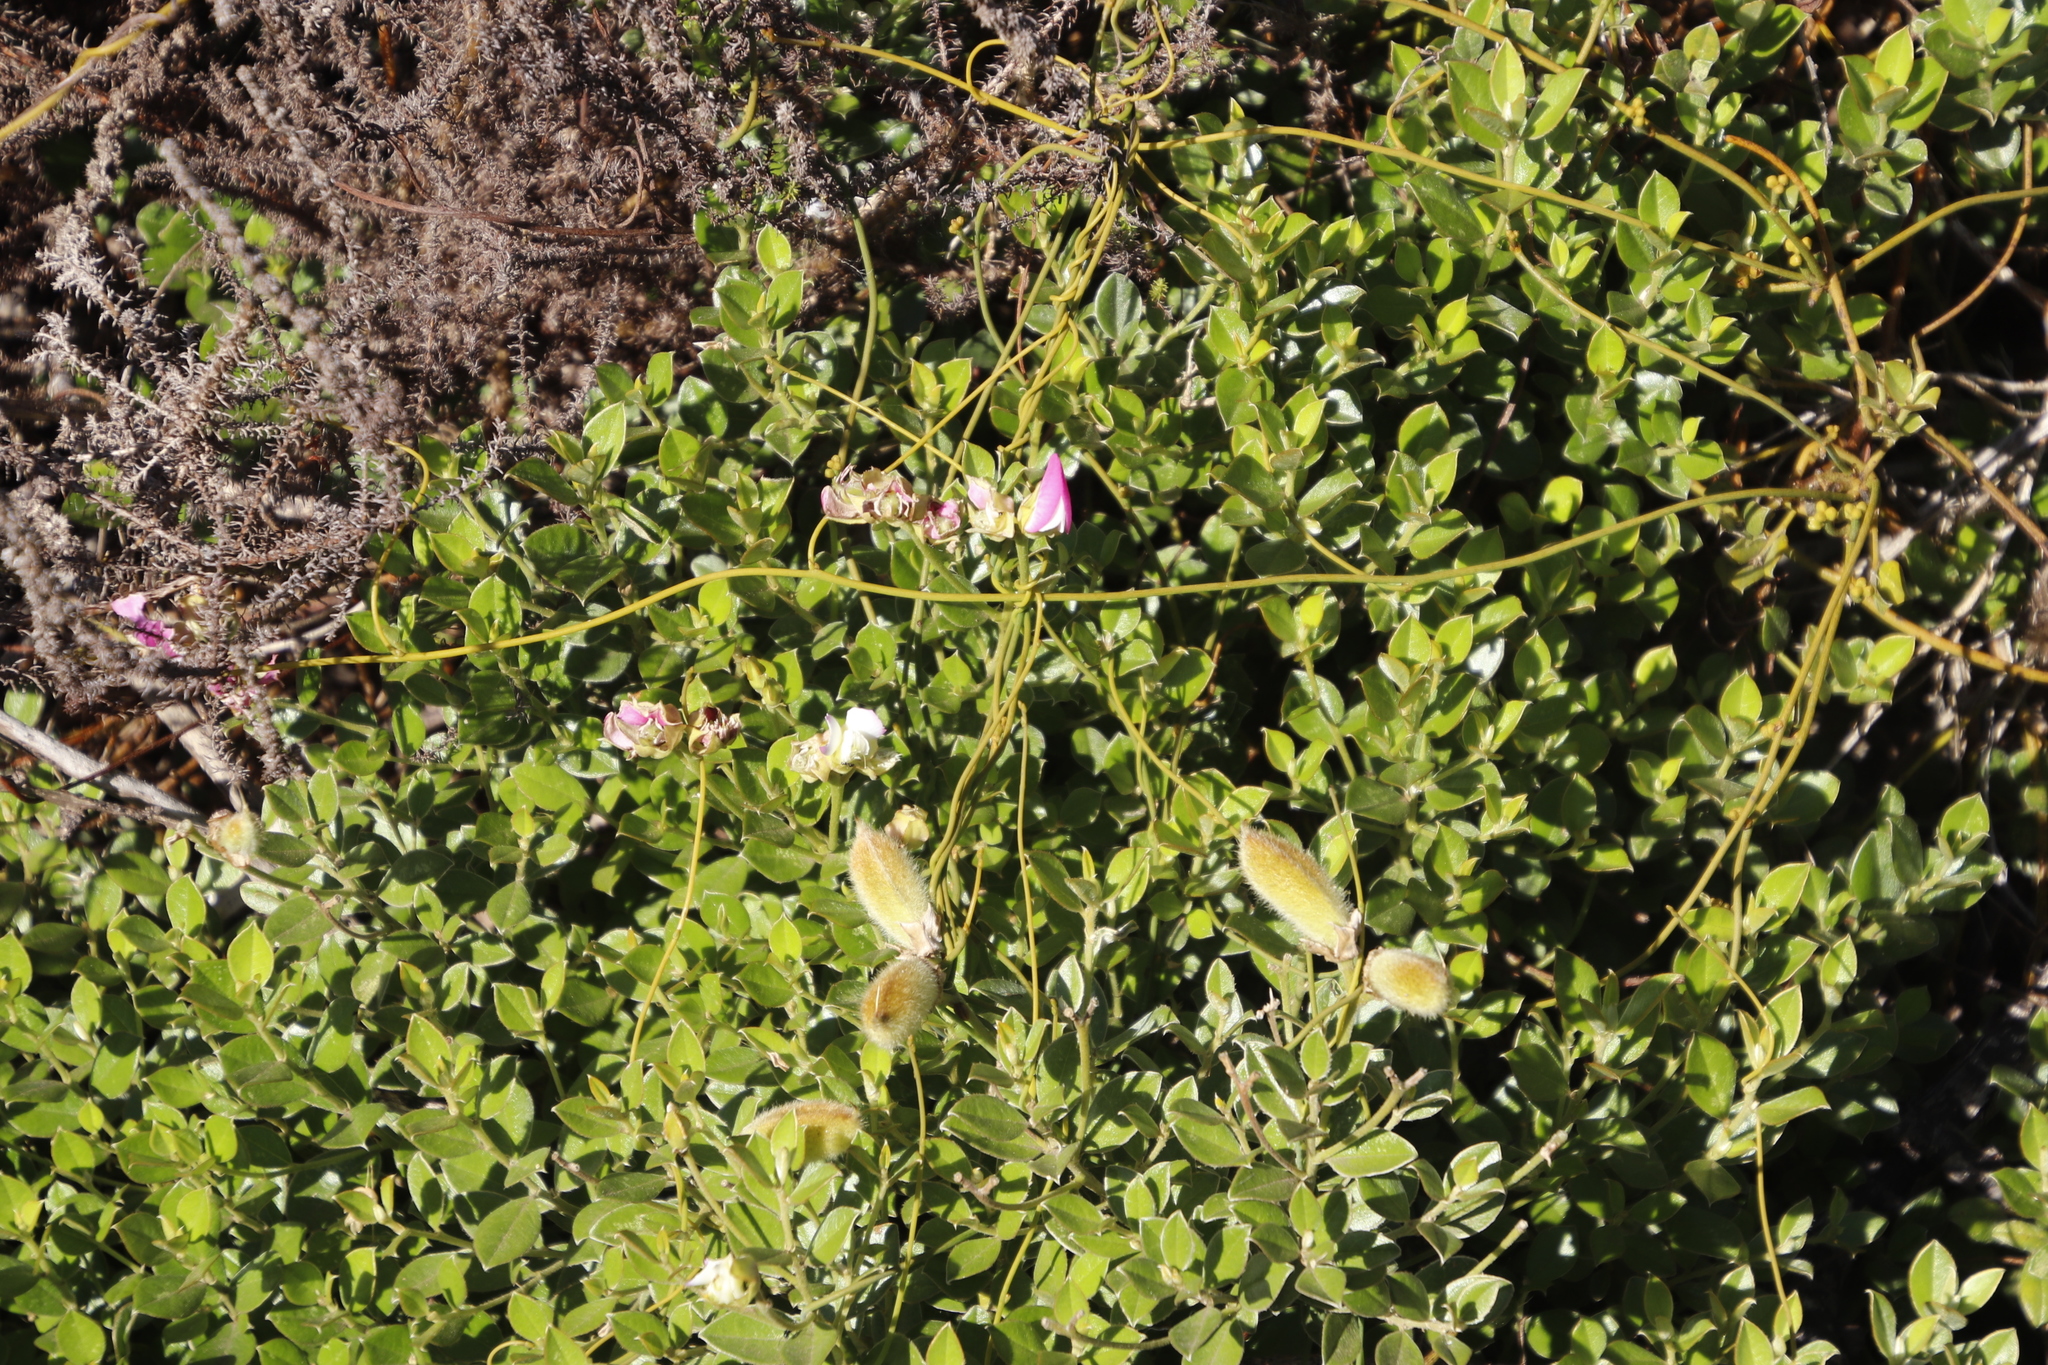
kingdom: Plantae
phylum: Tracheophyta
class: Magnoliopsida
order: Fabales
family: Fabaceae
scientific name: Fabaceae
